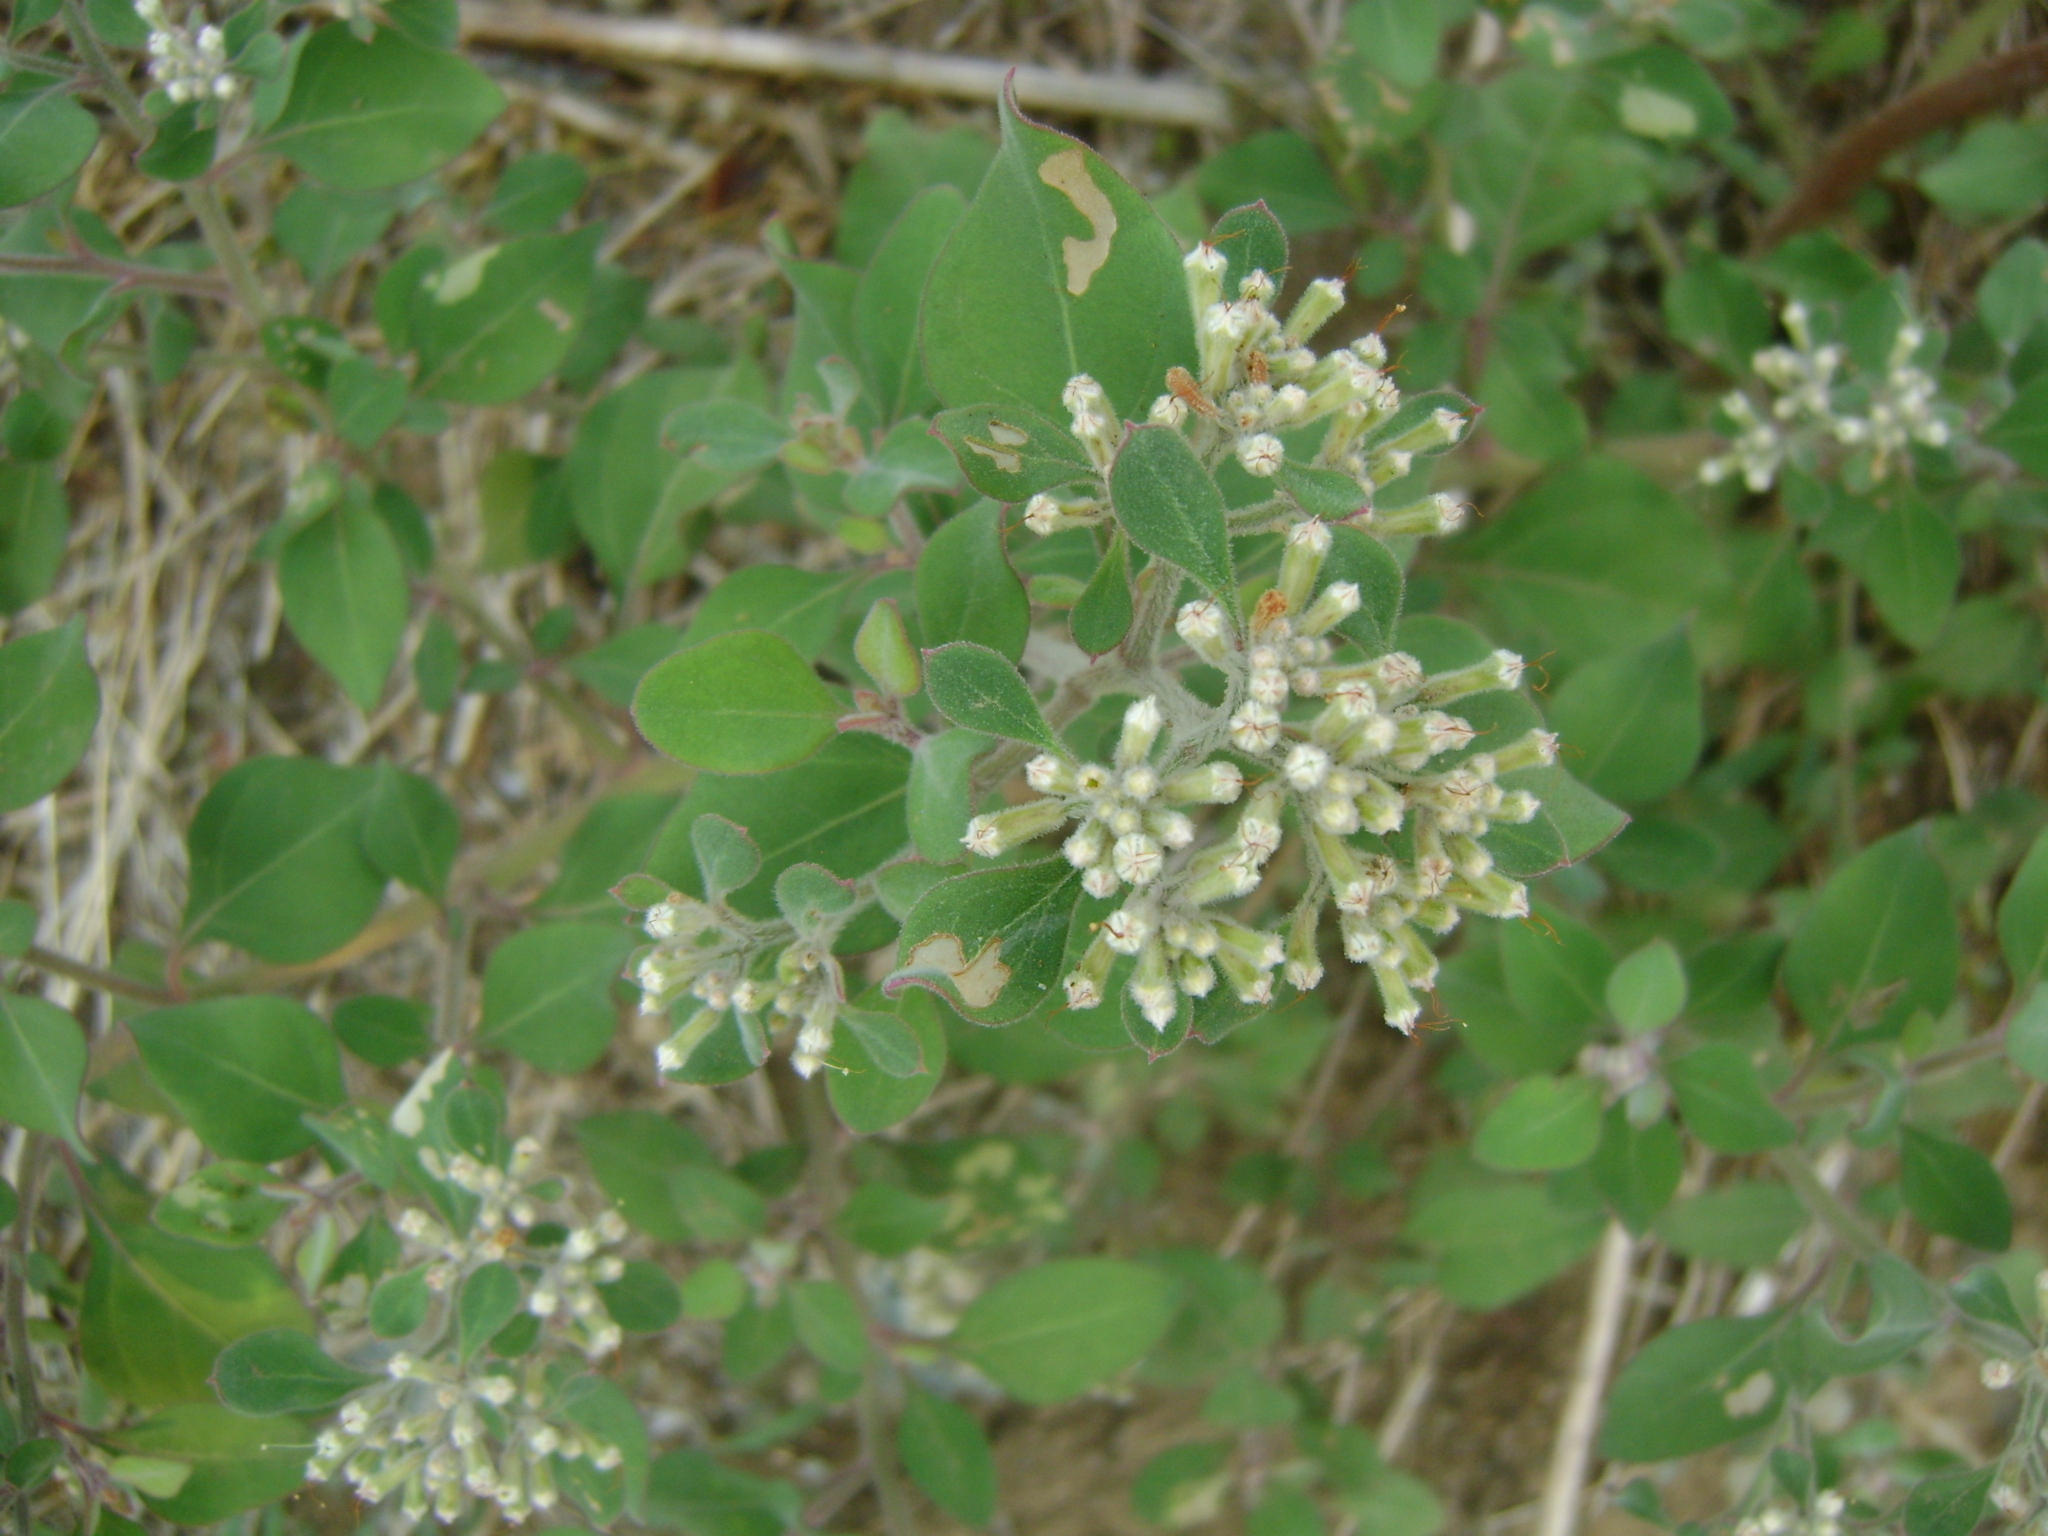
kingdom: Plantae
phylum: Tracheophyta
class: Magnoliopsida
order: Caryophyllales
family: Nyctaginaceae
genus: Salpianthus
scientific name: Salpianthus arenarius
